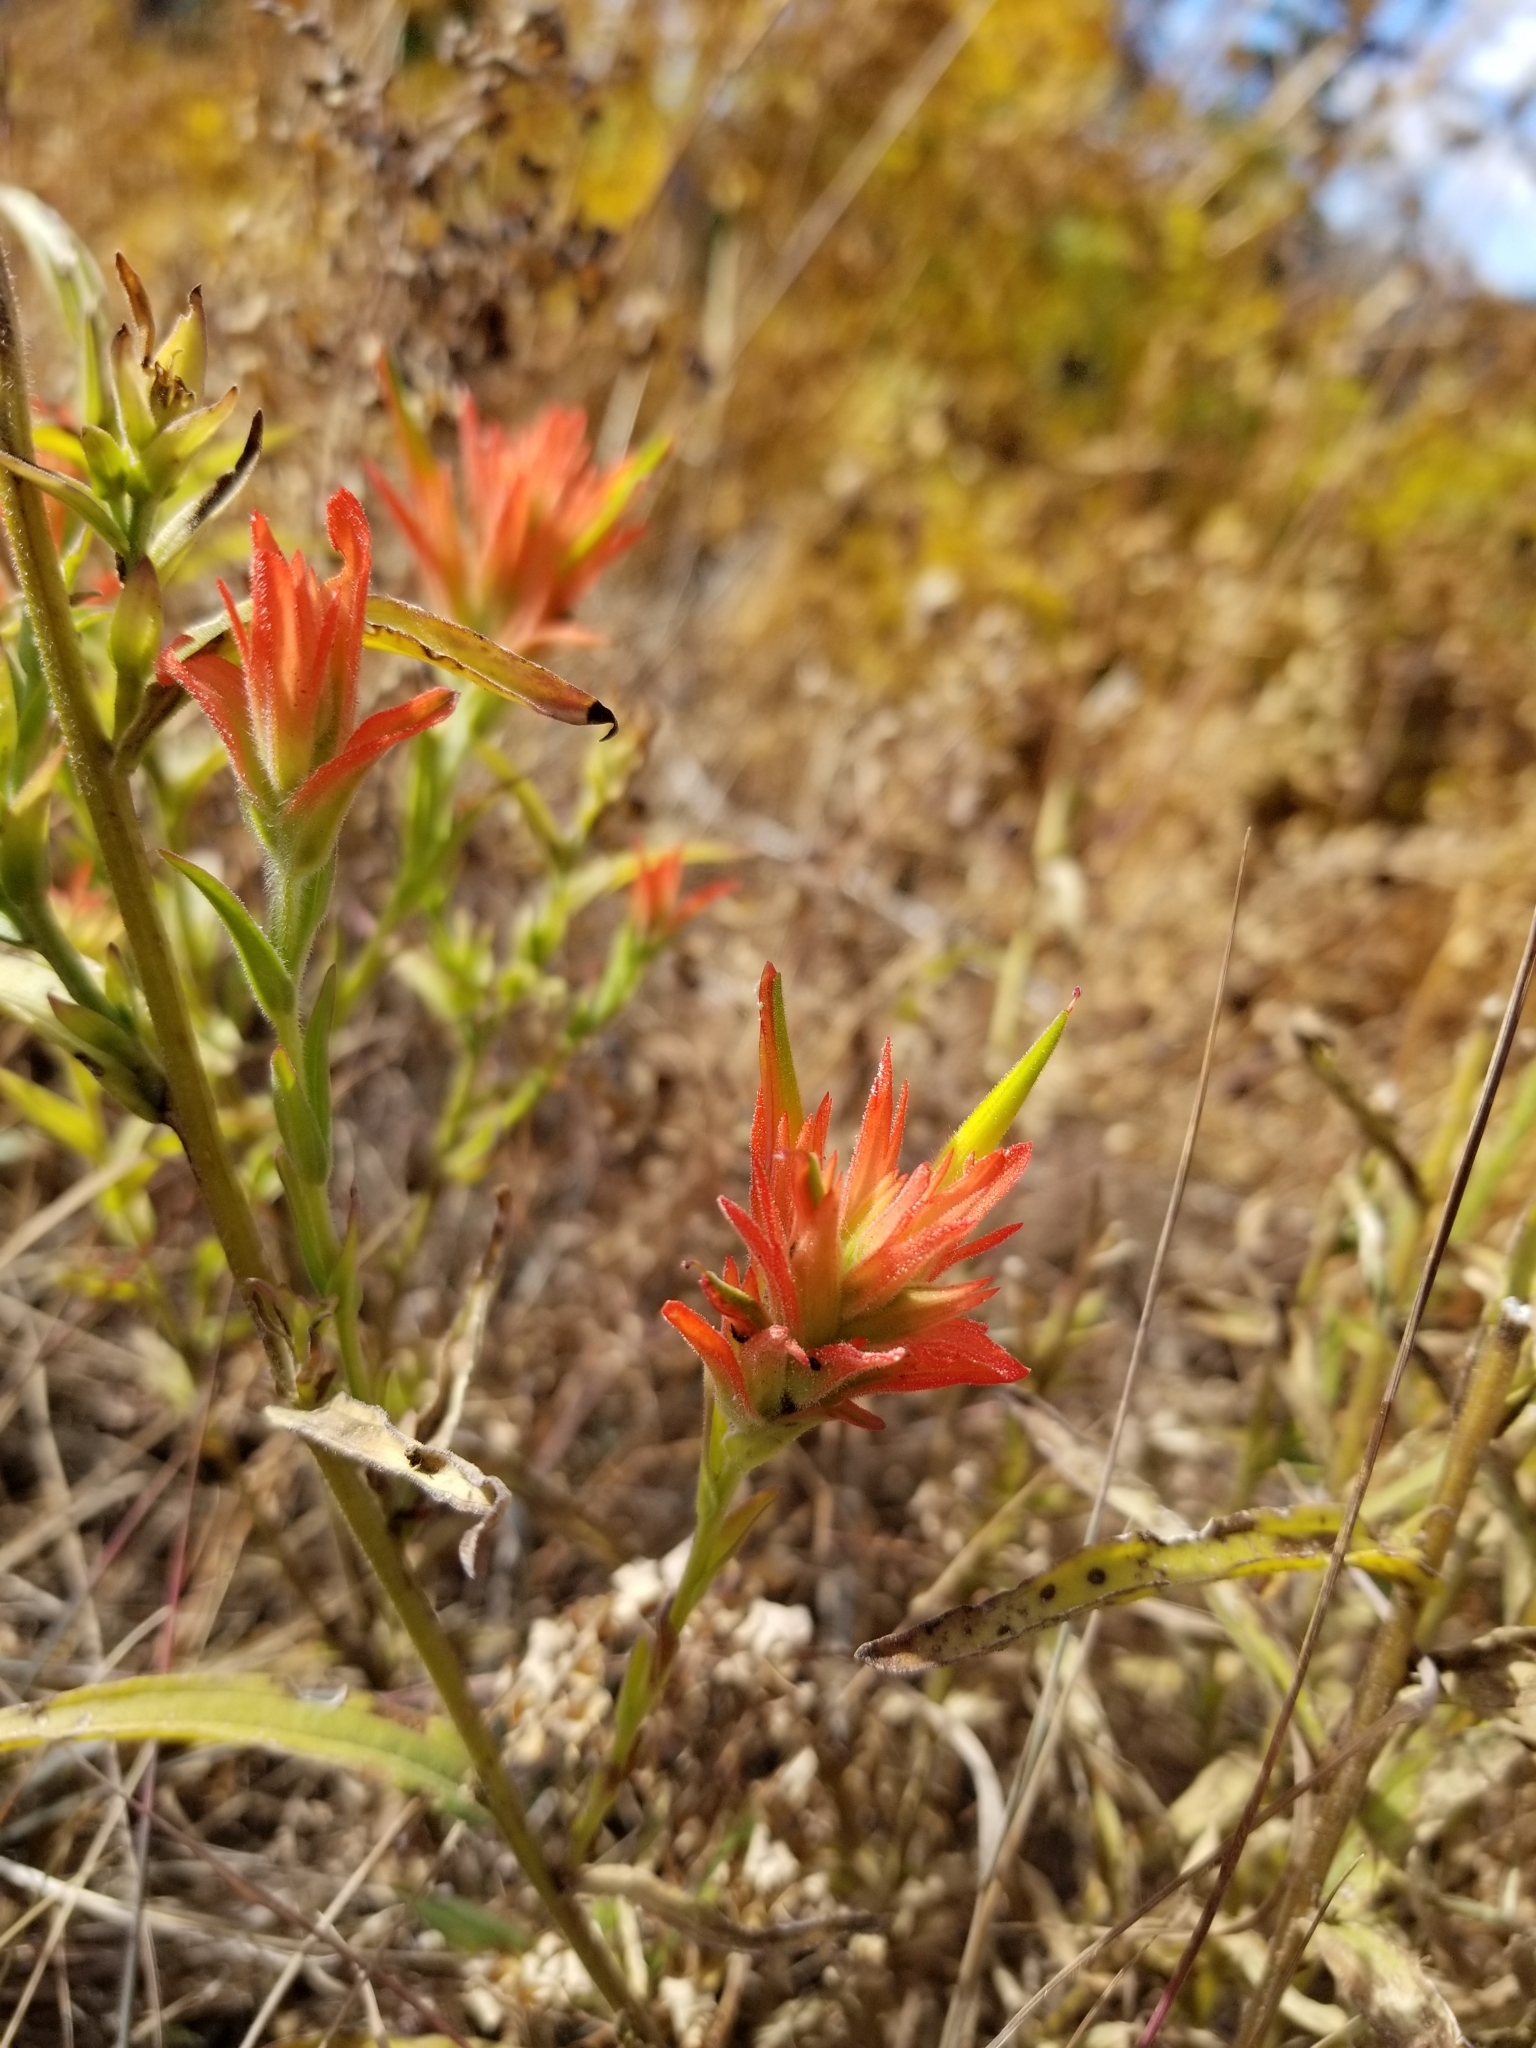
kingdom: Plantae
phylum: Tracheophyta
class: Magnoliopsida
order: Lamiales
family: Orobanchaceae
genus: Castilleja
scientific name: Castilleja miniata
